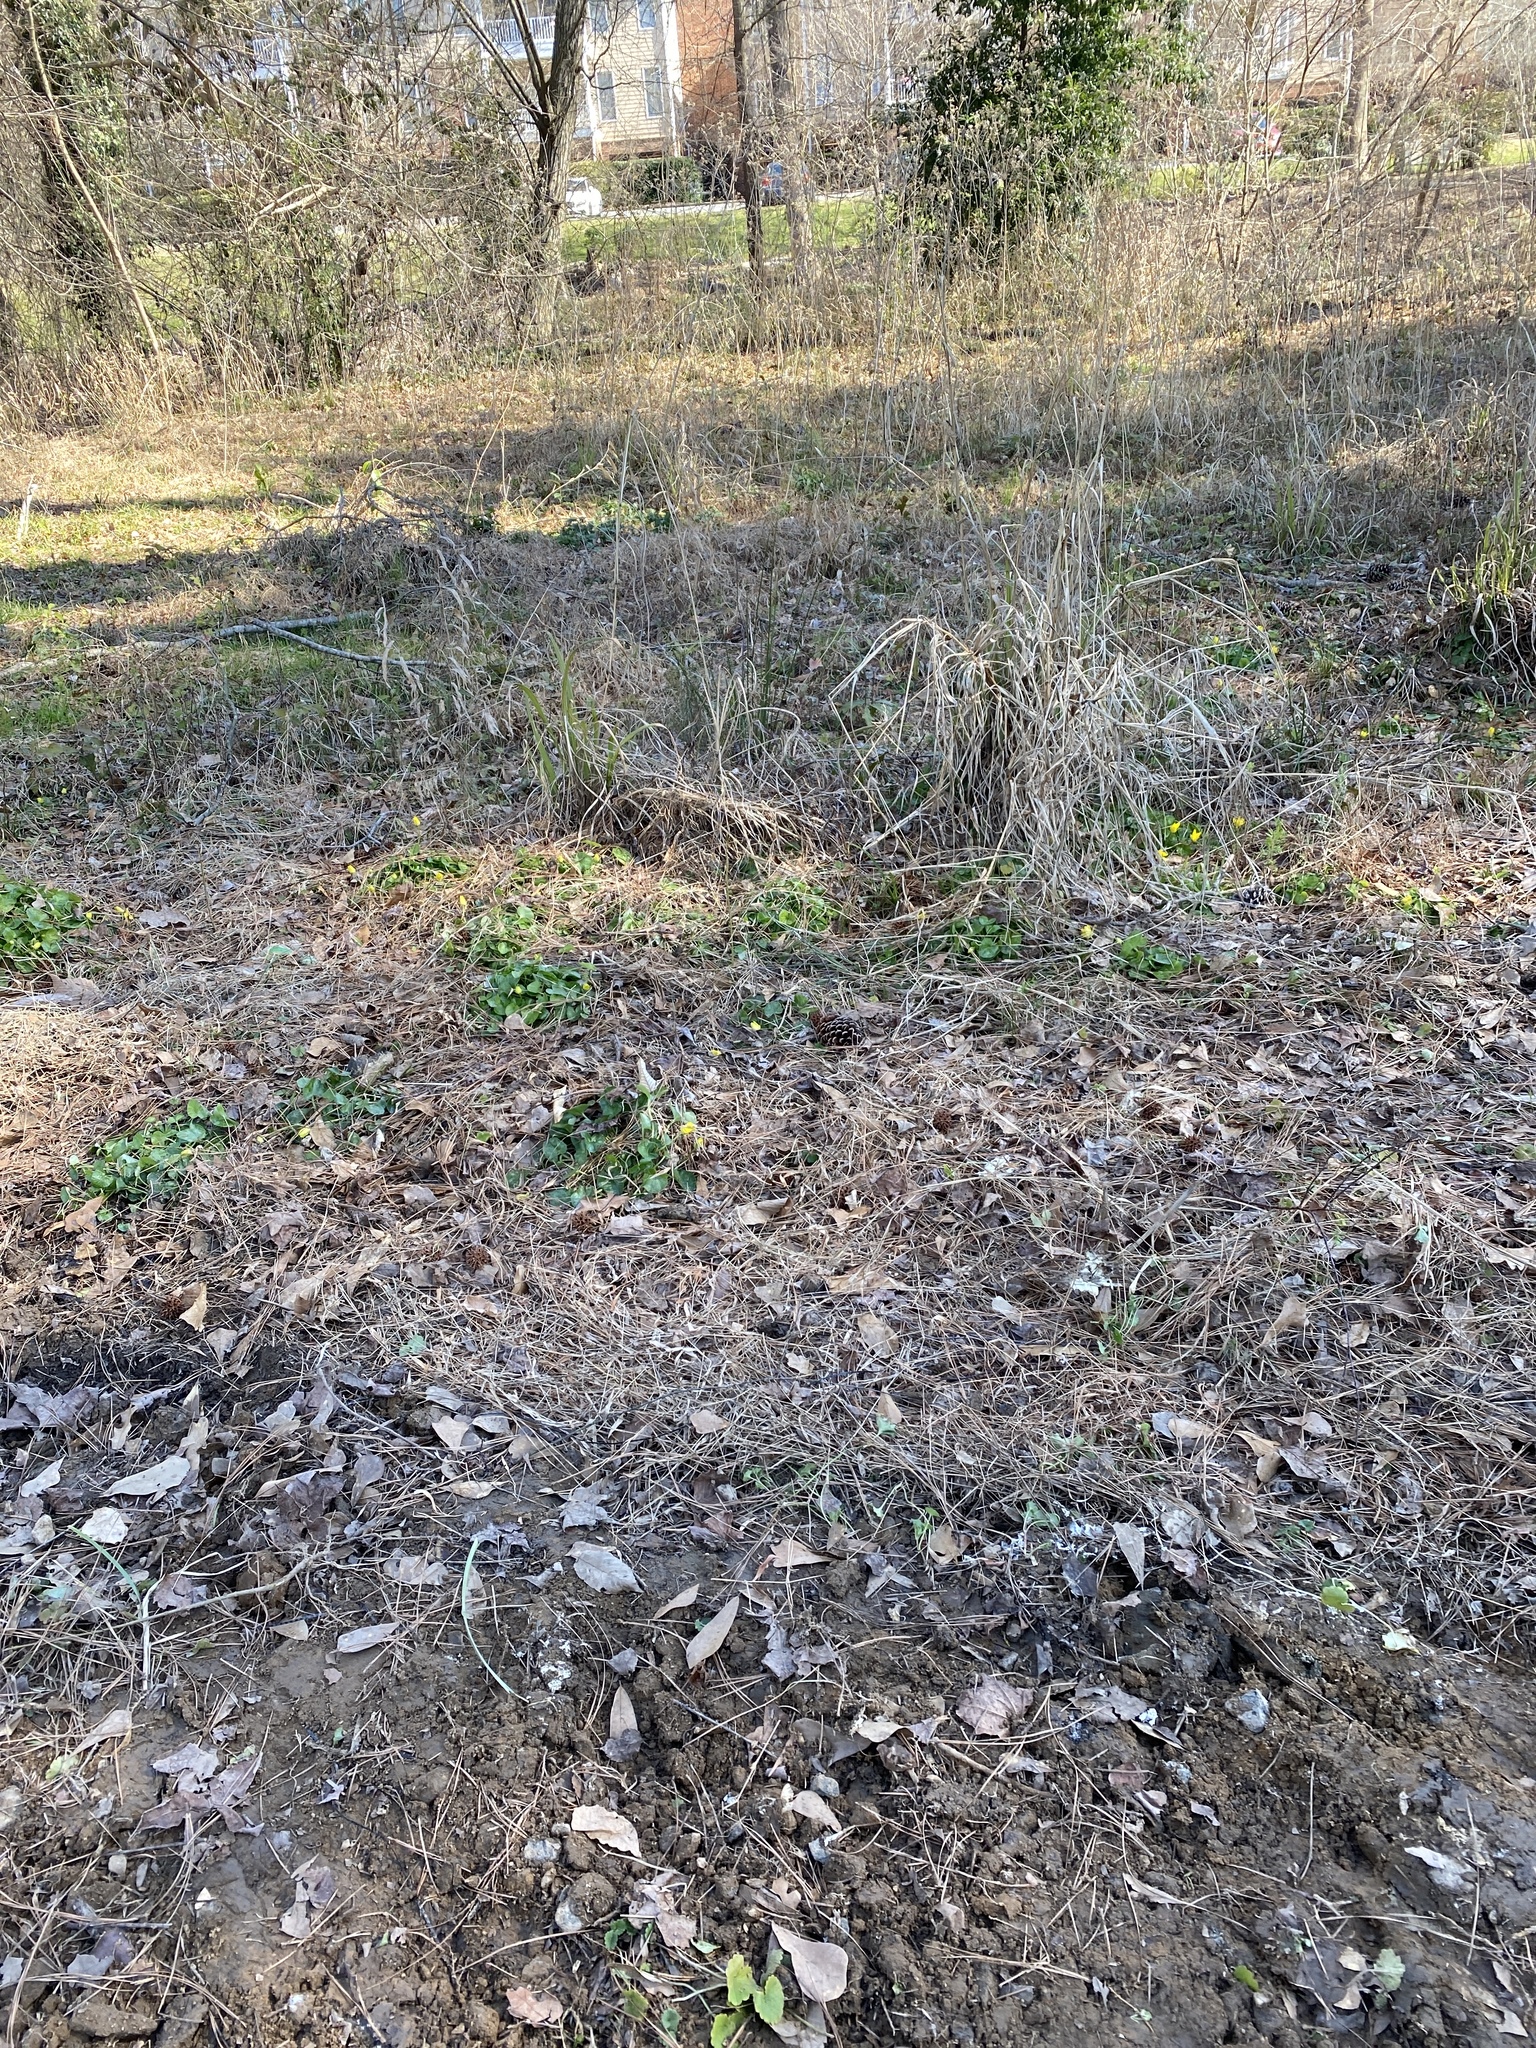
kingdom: Plantae
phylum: Tracheophyta
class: Magnoliopsida
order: Ranunculales
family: Ranunculaceae
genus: Ficaria
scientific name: Ficaria verna
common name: Lesser celandine
